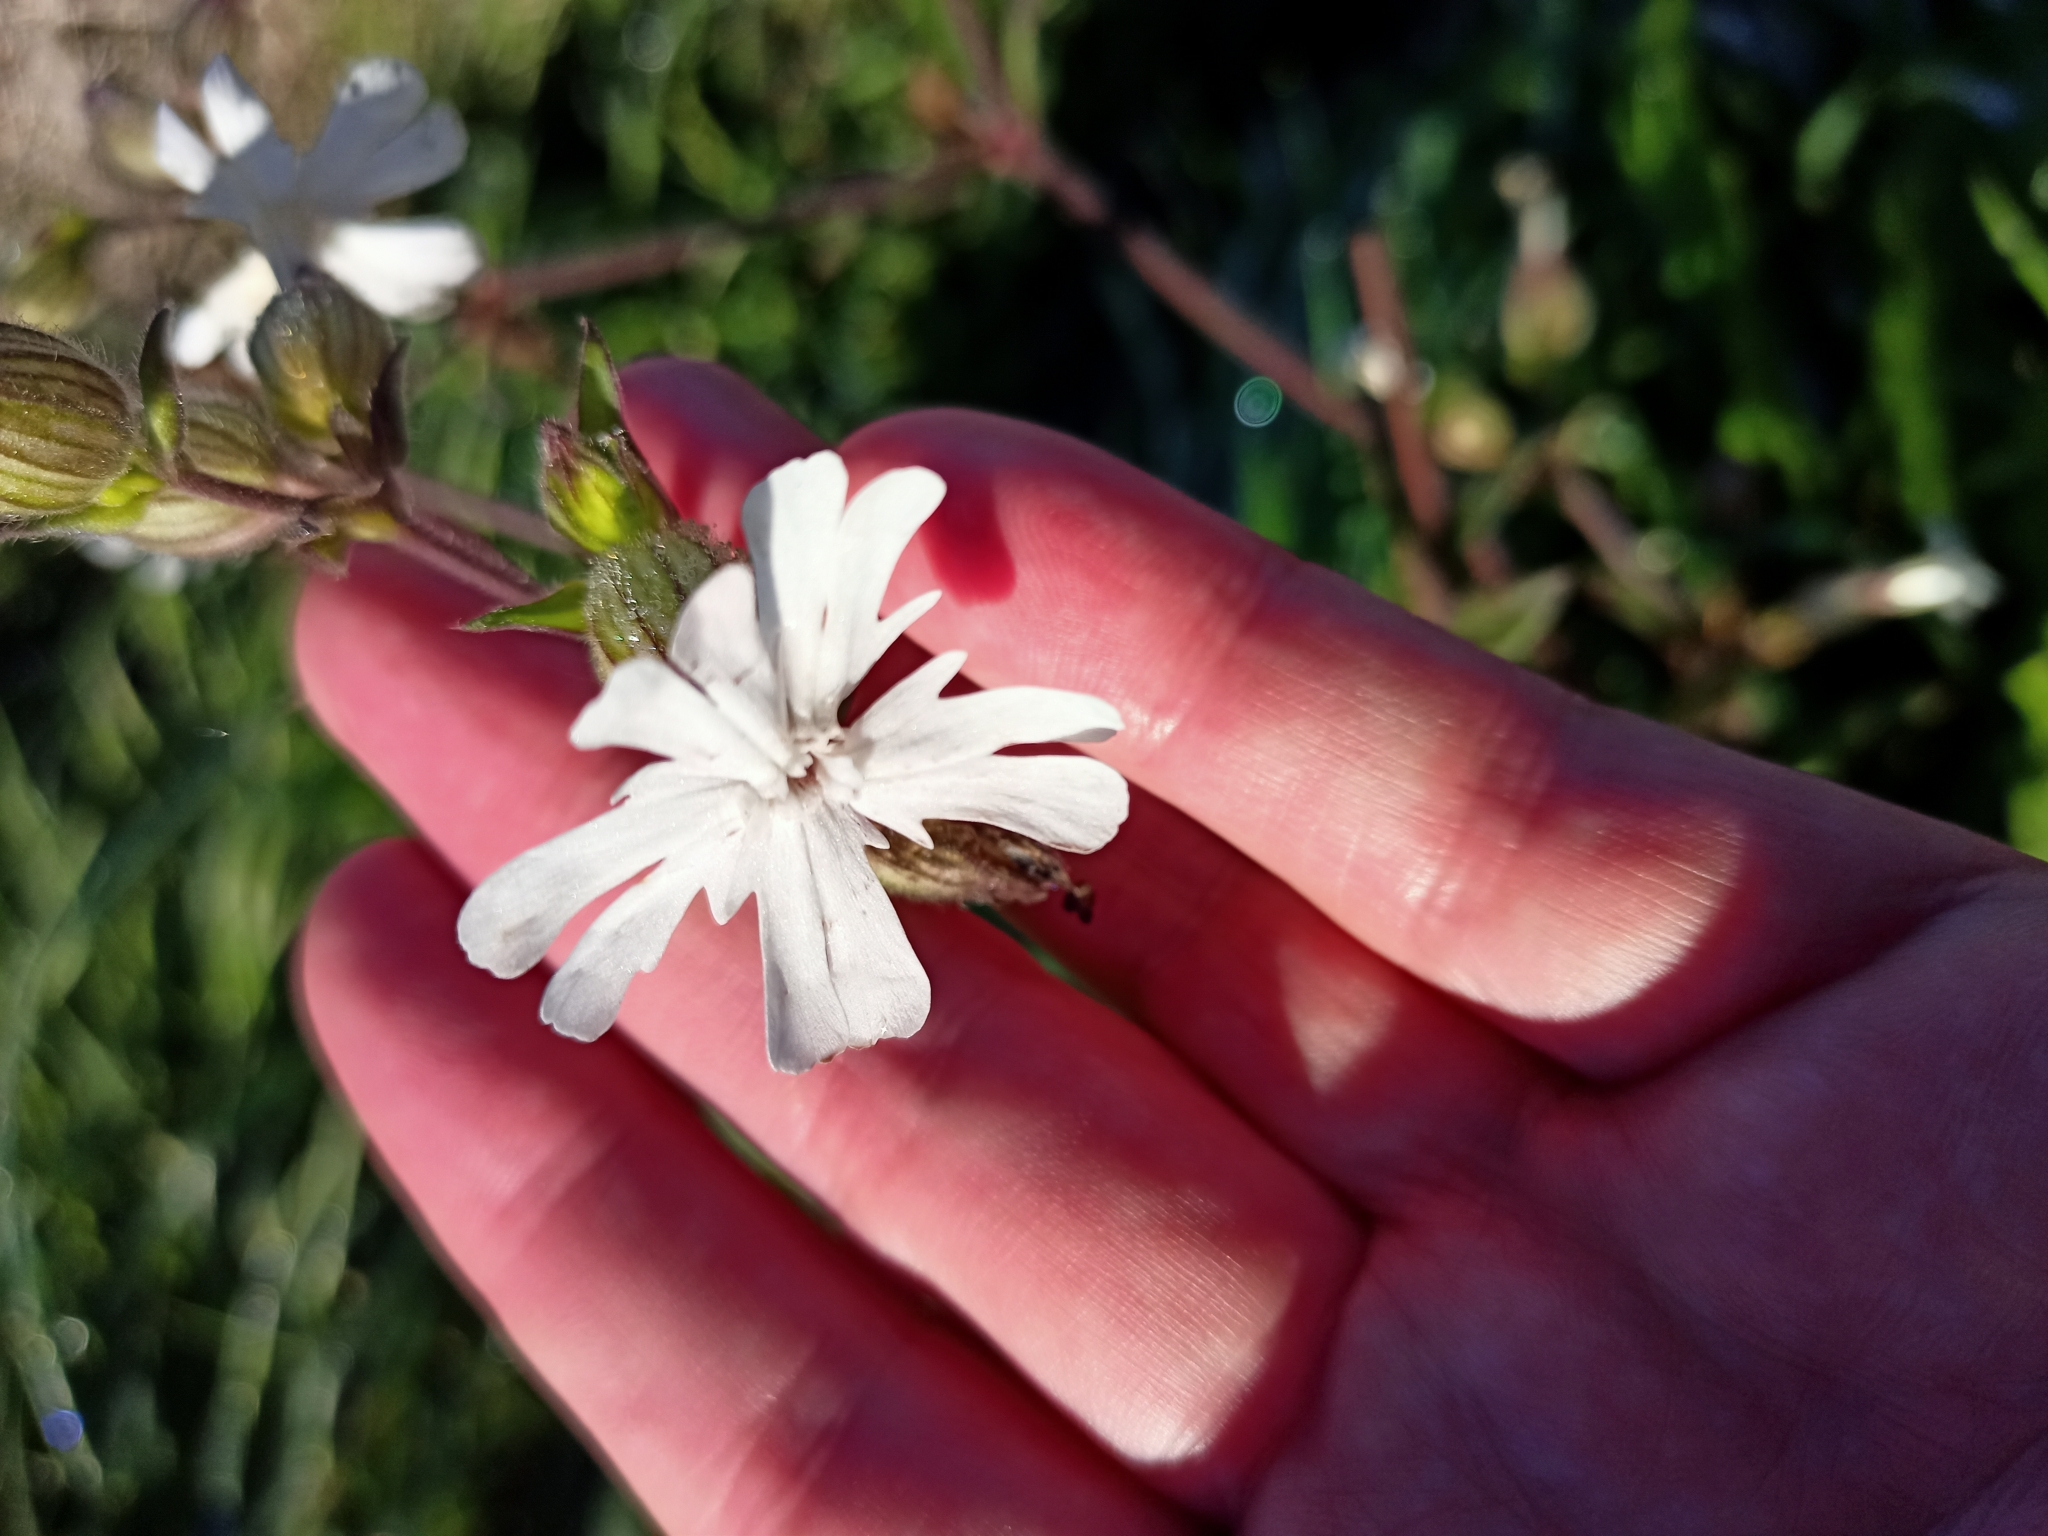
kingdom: Plantae
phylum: Tracheophyta
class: Magnoliopsida
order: Caryophyllales
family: Caryophyllaceae
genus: Silene
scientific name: Silene latifolia
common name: White campion
